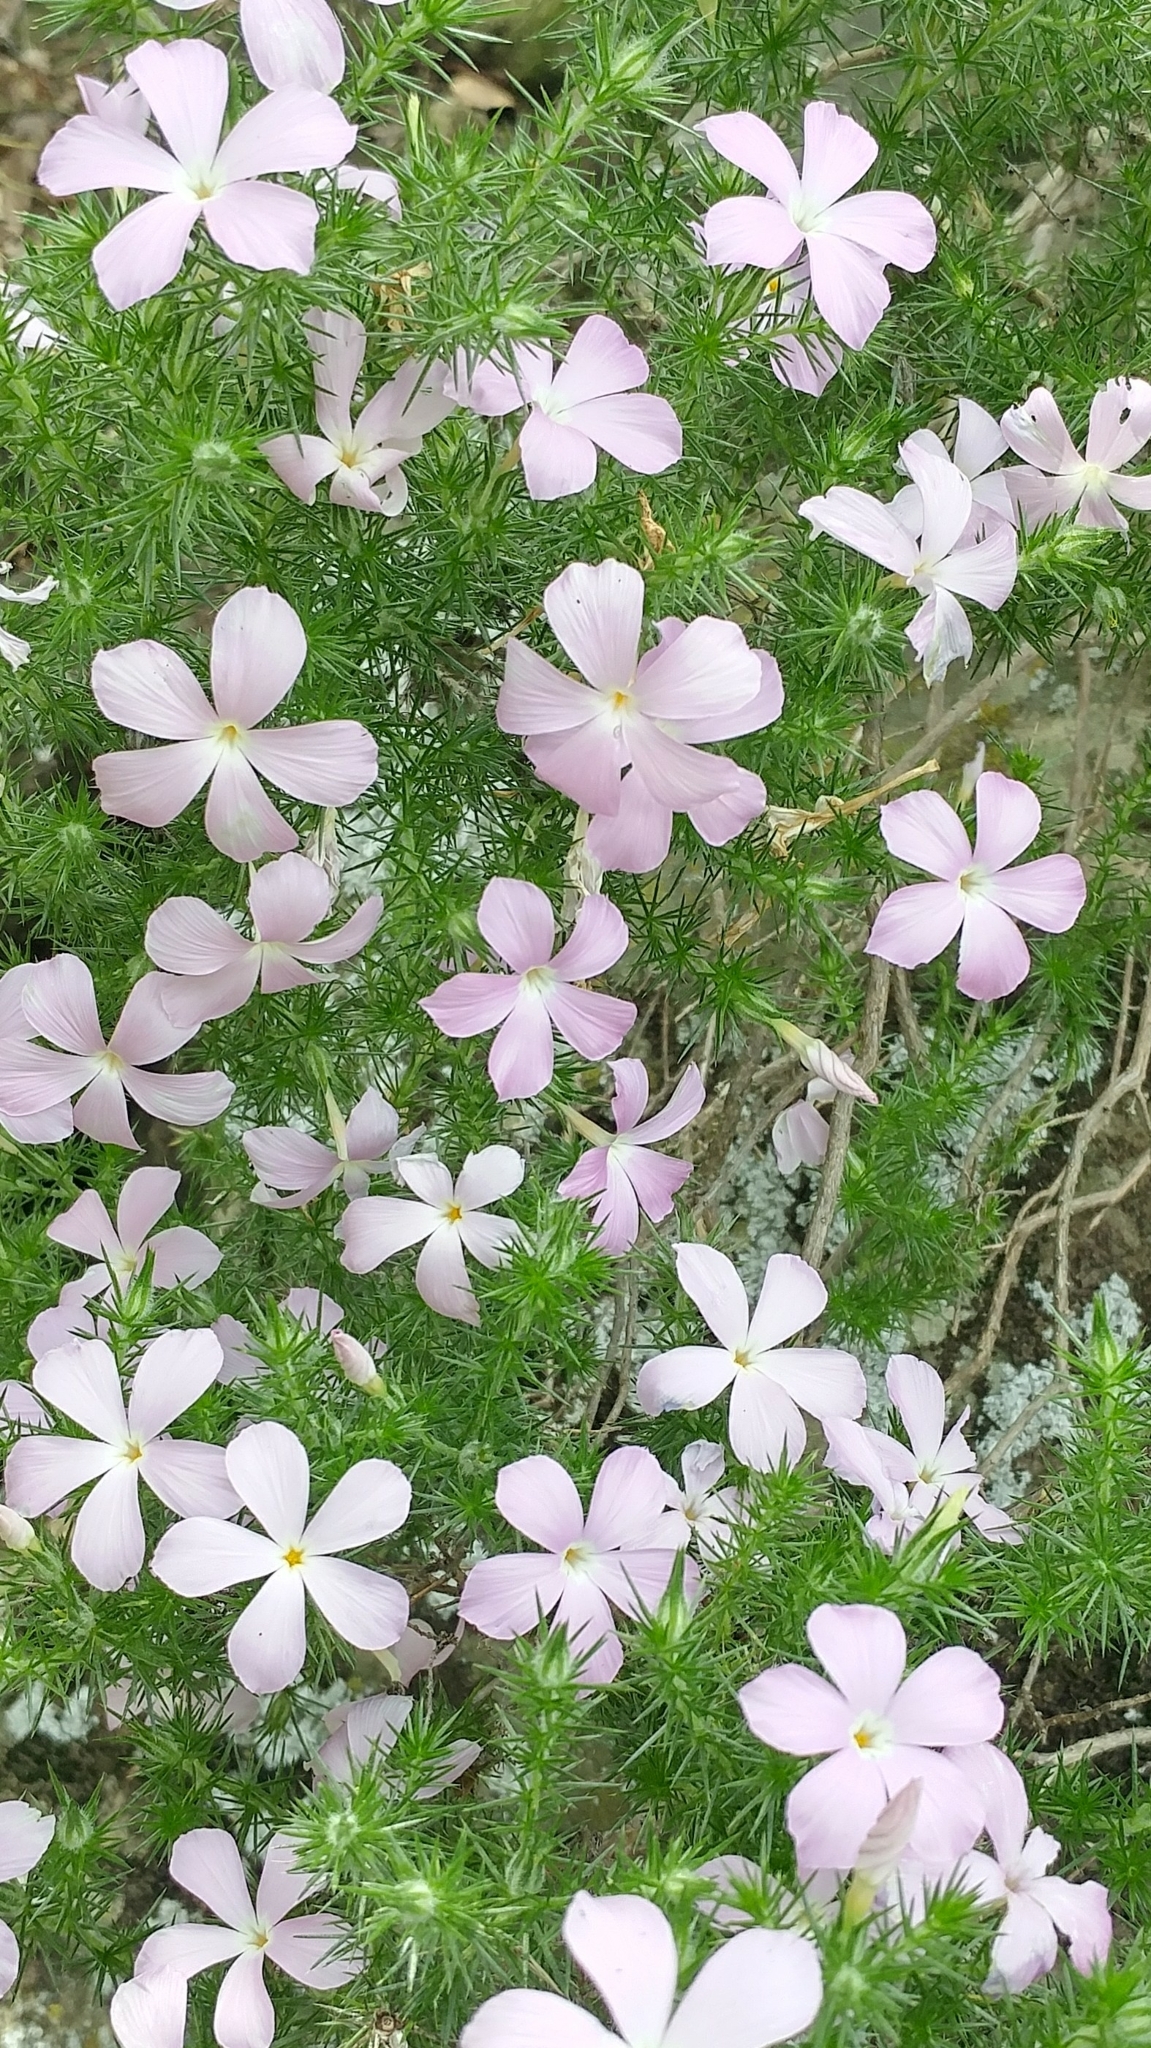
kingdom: Plantae
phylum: Tracheophyta
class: Magnoliopsida
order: Ericales
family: Polemoniaceae
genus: Linanthus
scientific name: Linanthus californicus
